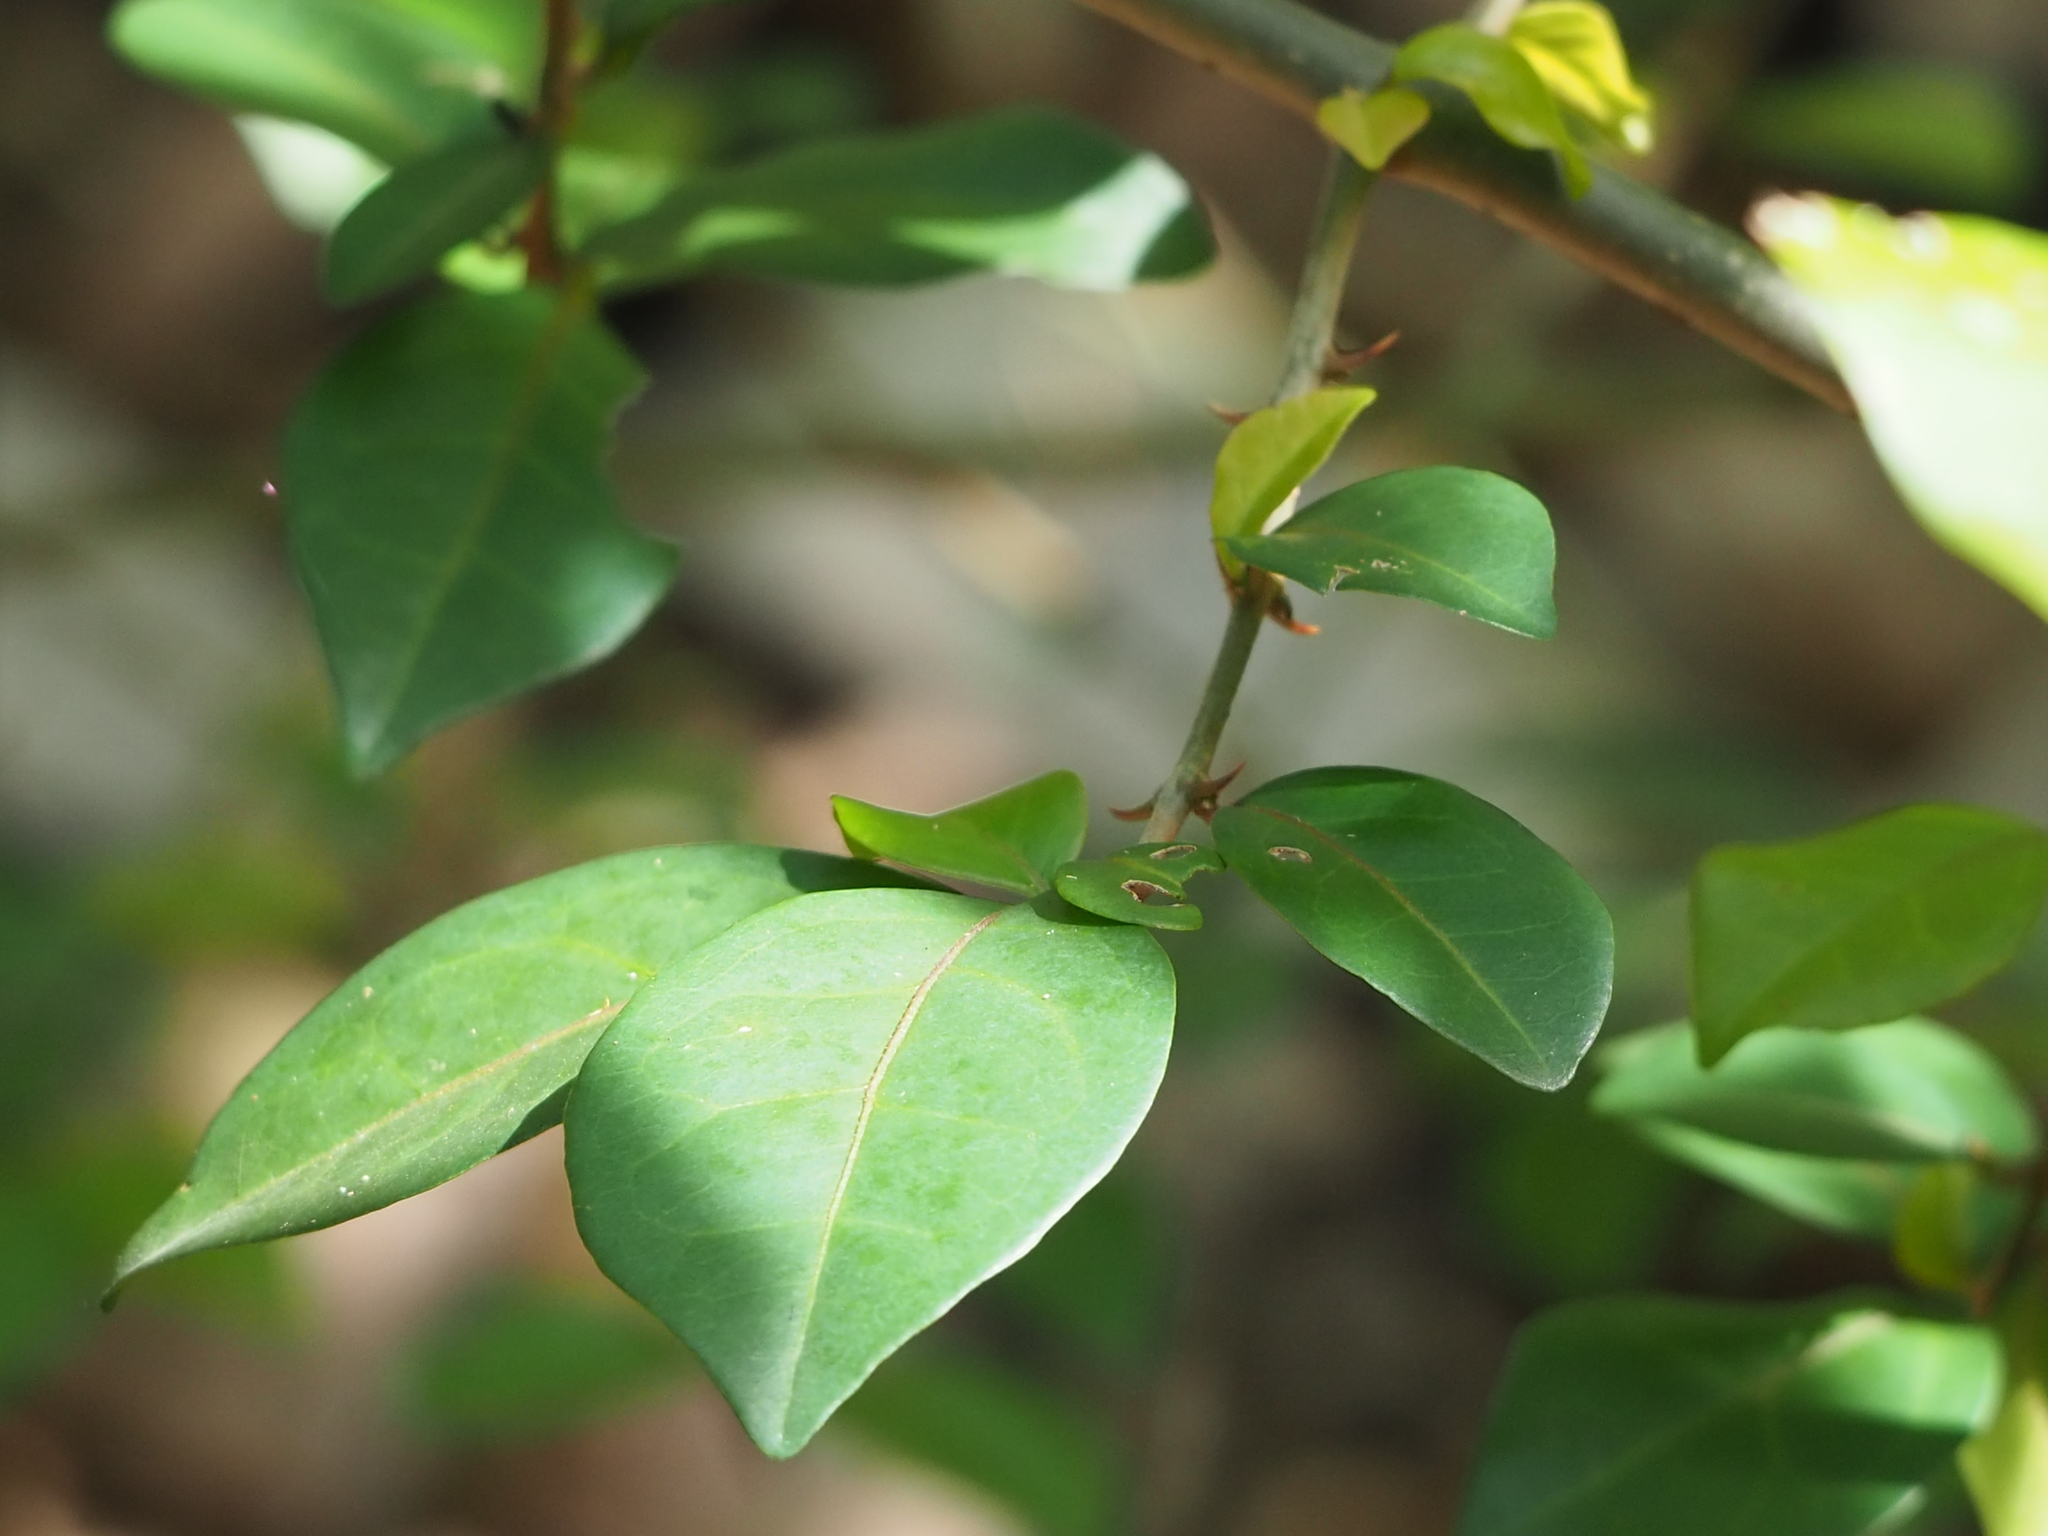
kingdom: Plantae
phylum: Tracheophyta
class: Magnoliopsida
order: Caryophyllales
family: Nyctaginaceae
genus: Pisonia
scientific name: Pisonia aculeata
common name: Cockspur vine
